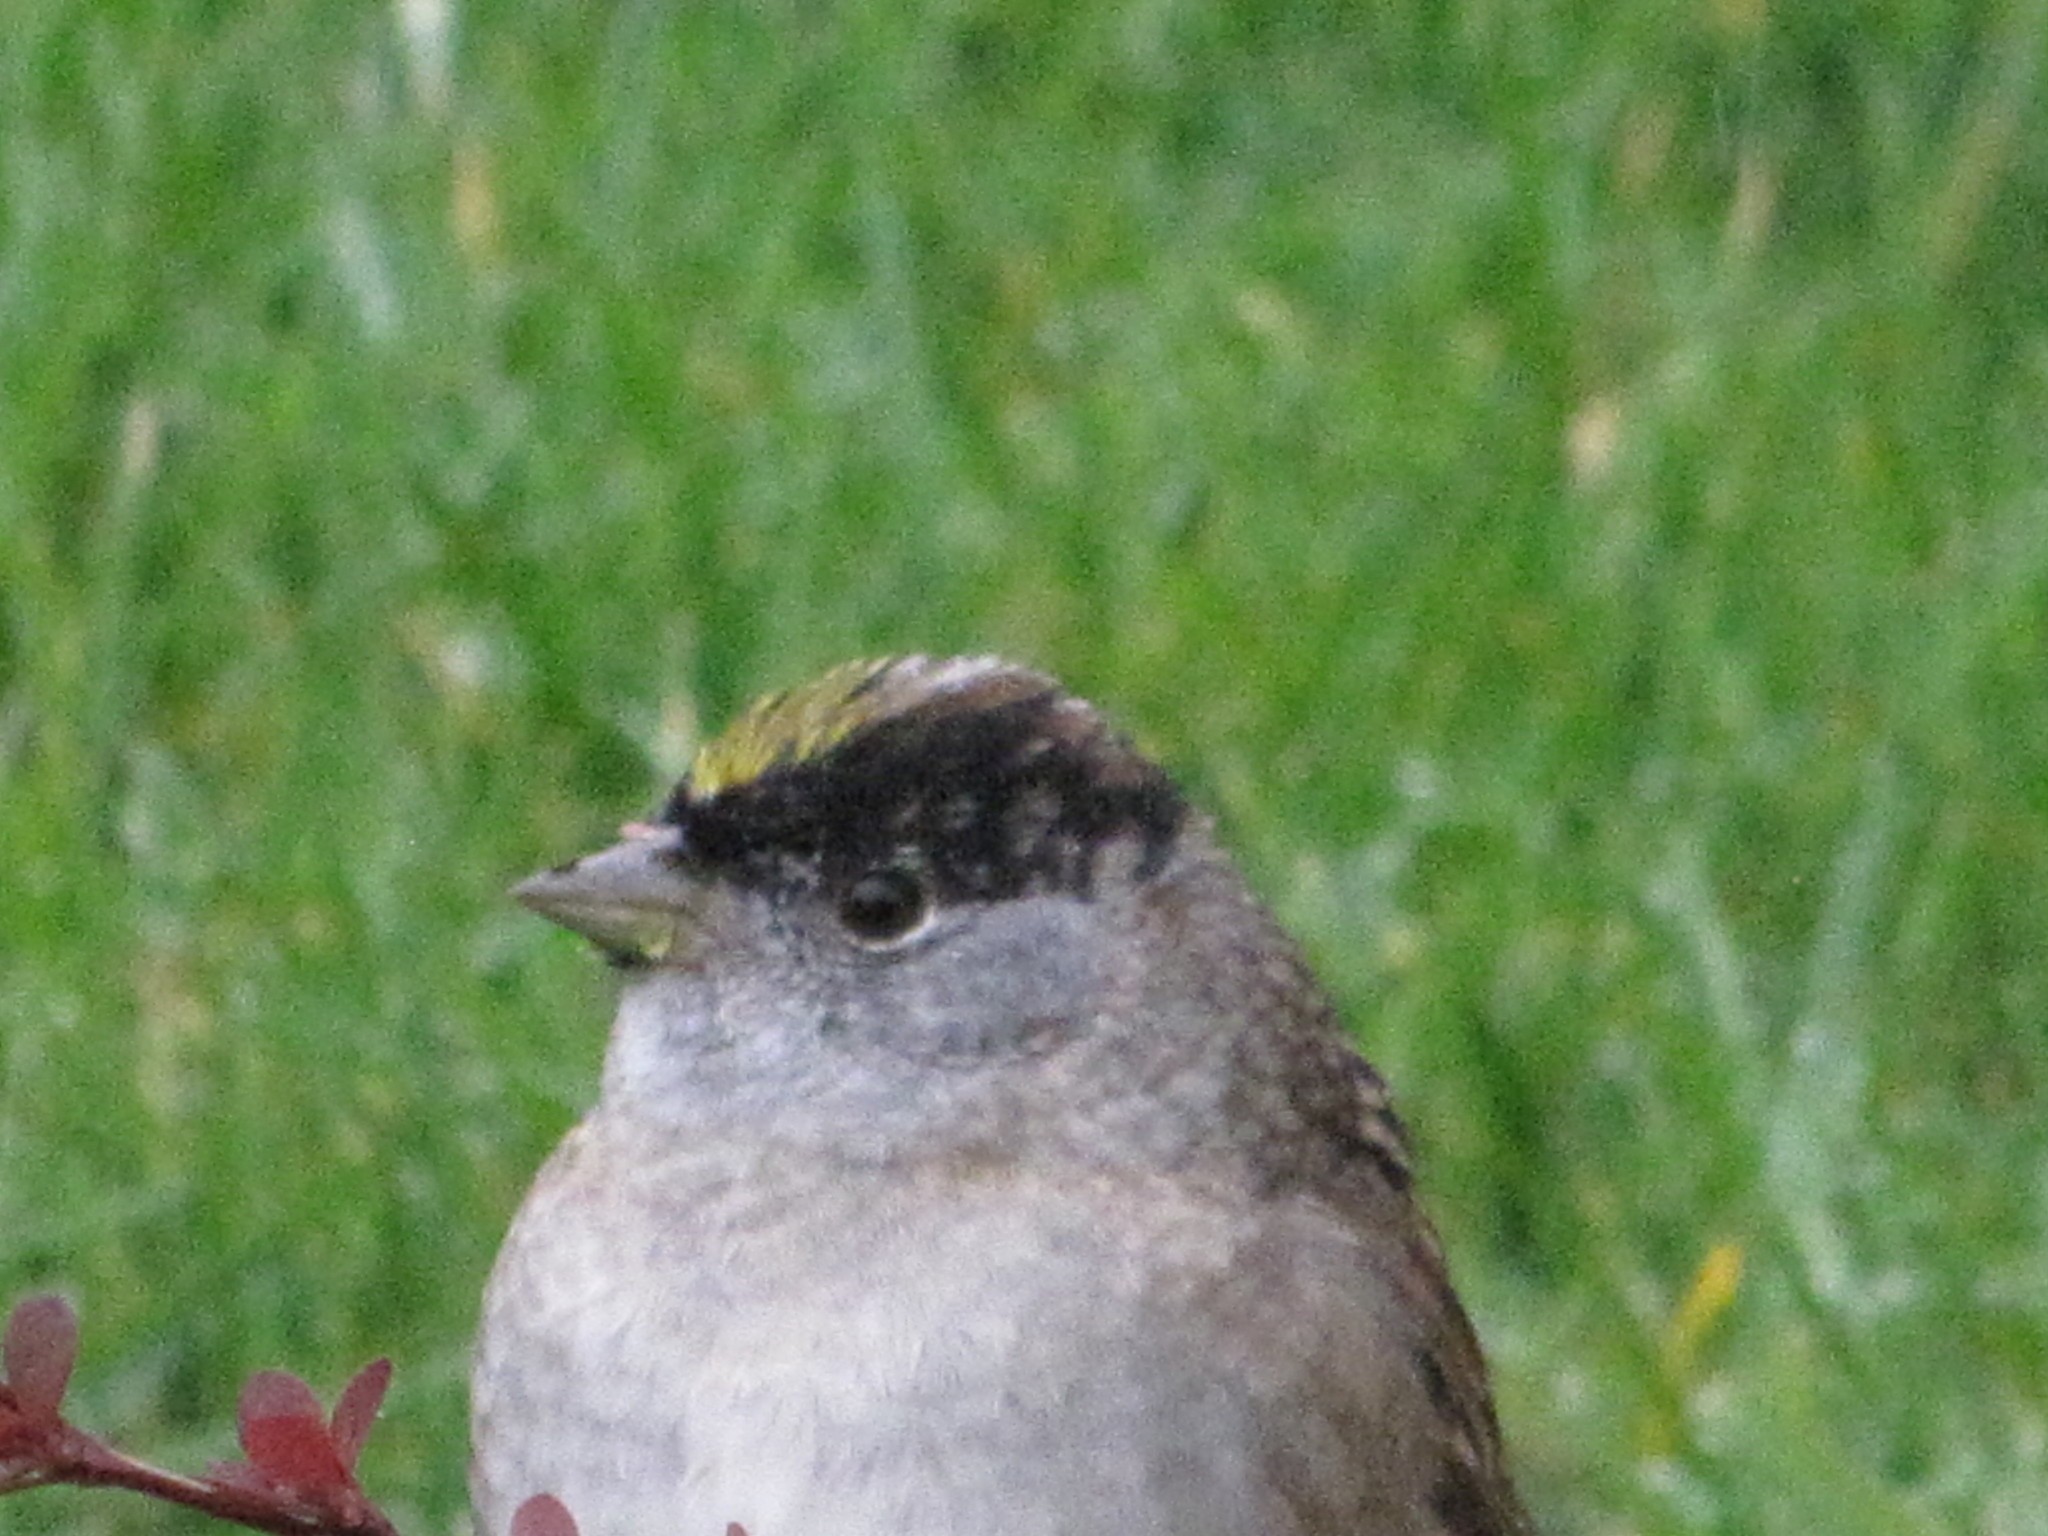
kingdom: Animalia
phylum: Chordata
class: Aves
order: Passeriformes
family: Passerellidae
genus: Zonotrichia
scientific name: Zonotrichia atricapilla
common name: Golden-crowned sparrow
